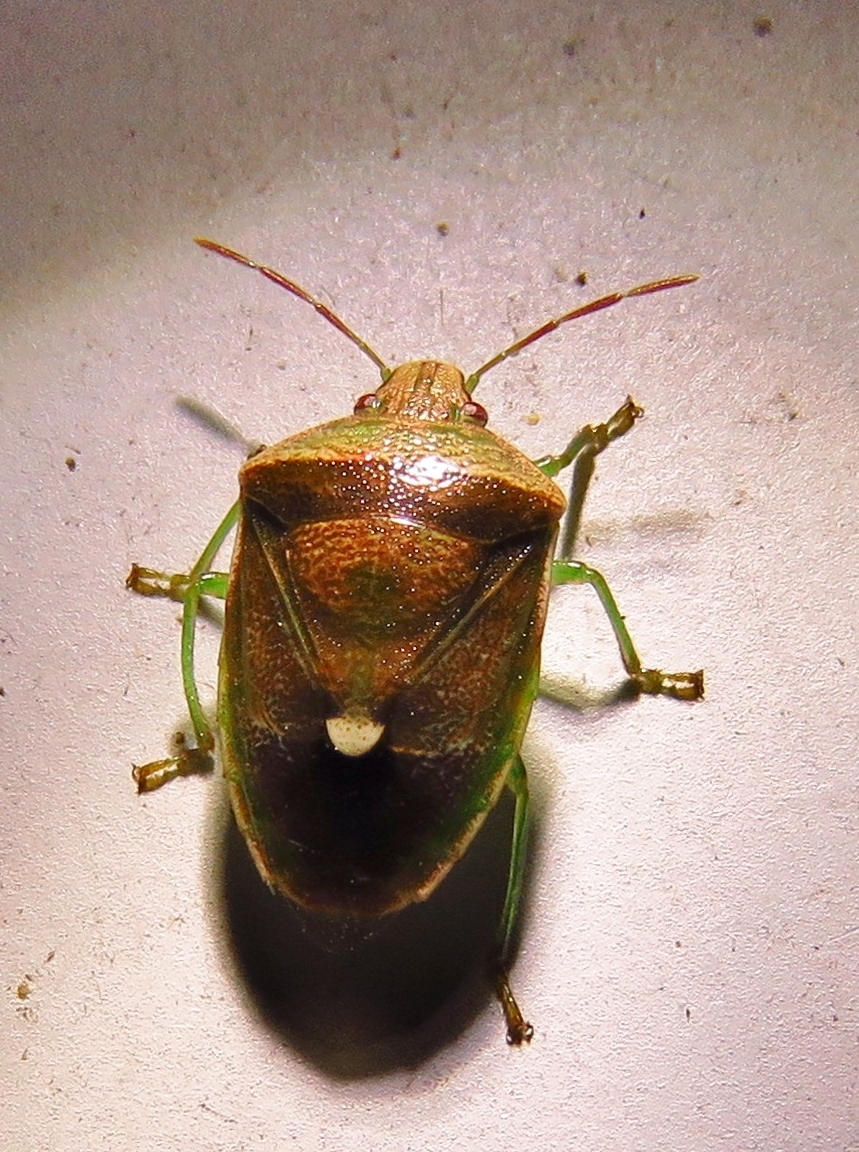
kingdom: Animalia
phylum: Arthropoda
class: Insecta
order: Hemiptera
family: Pentatomidae
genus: Banasa
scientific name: Banasa dimidiata
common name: Green burgundy stink bug
